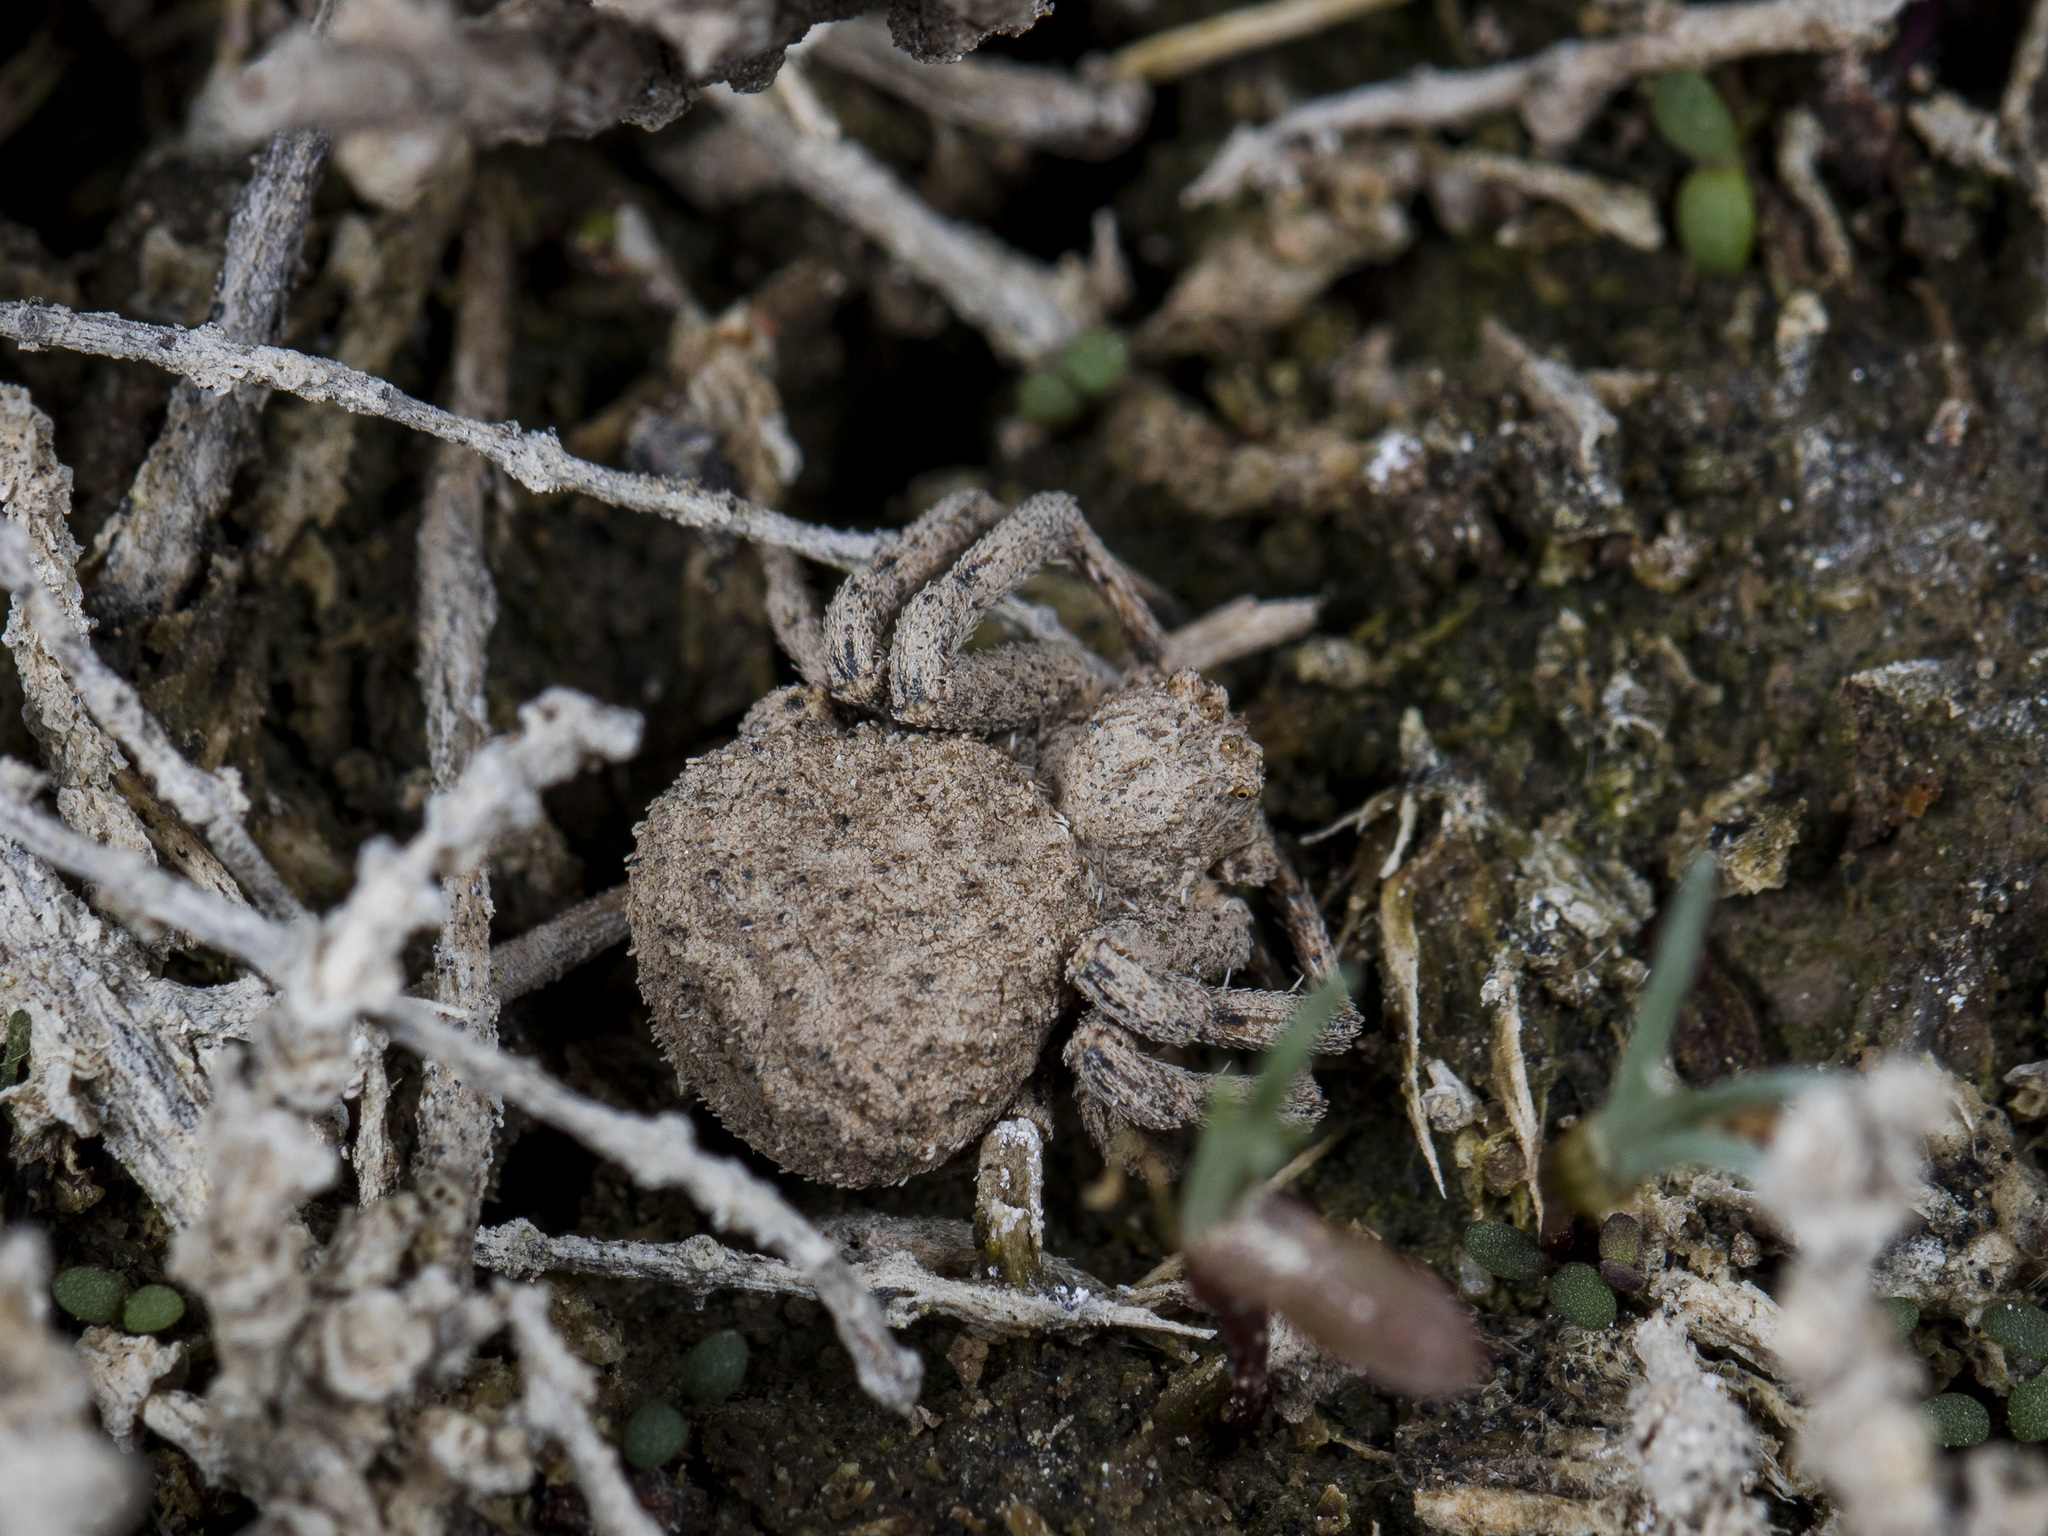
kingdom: Animalia
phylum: Arthropoda
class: Arachnida
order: Araneae
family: Thomisidae
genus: Ozyptila
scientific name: Ozyptila lugubris
